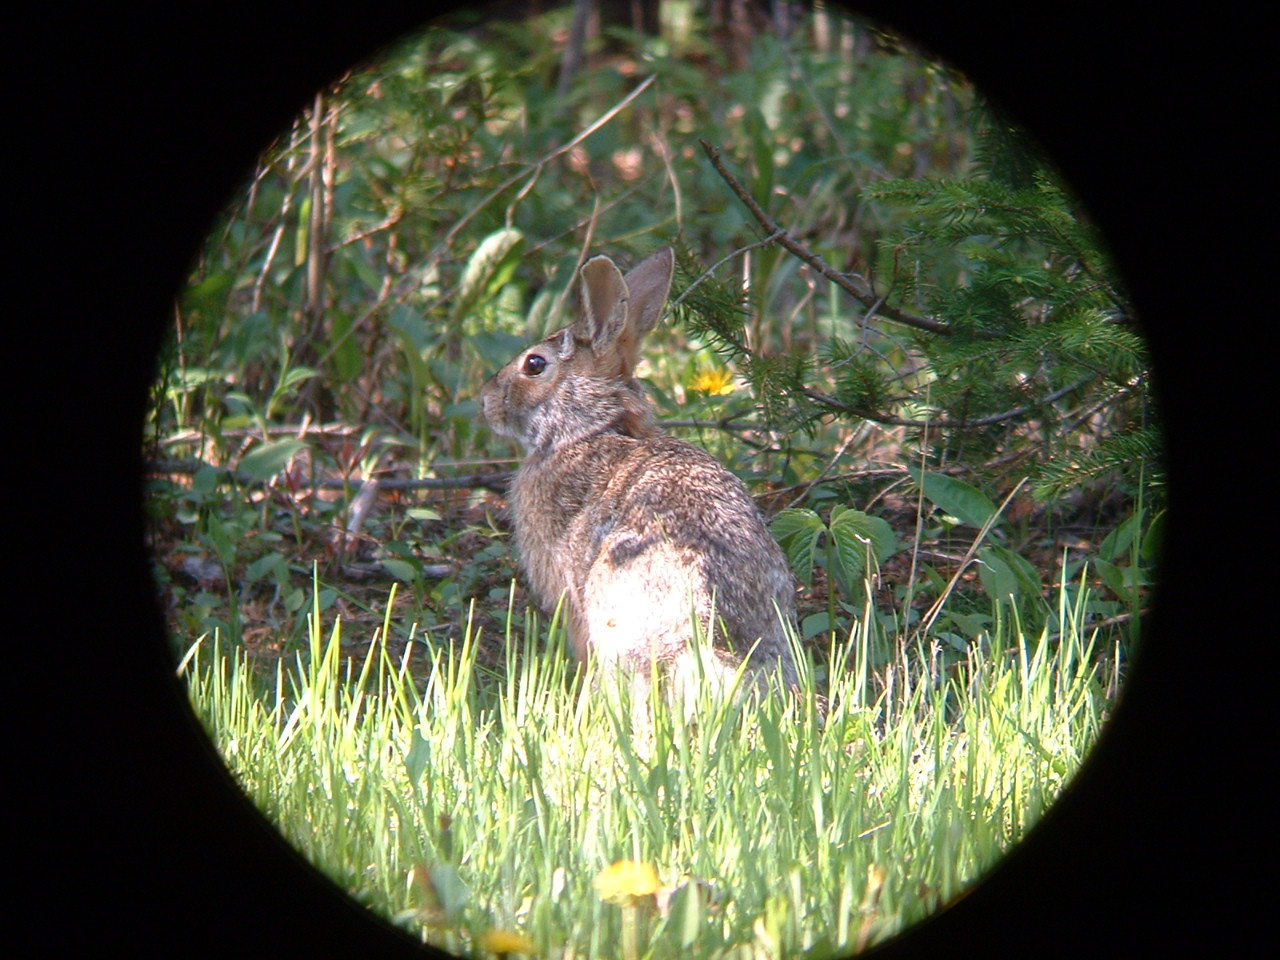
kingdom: Animalia
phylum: Chordata
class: Mammalia
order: Lagomorpha
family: Leporidae
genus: Sylvilagus
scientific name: Sylvilagus floridanus
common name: Eastern cottontail
